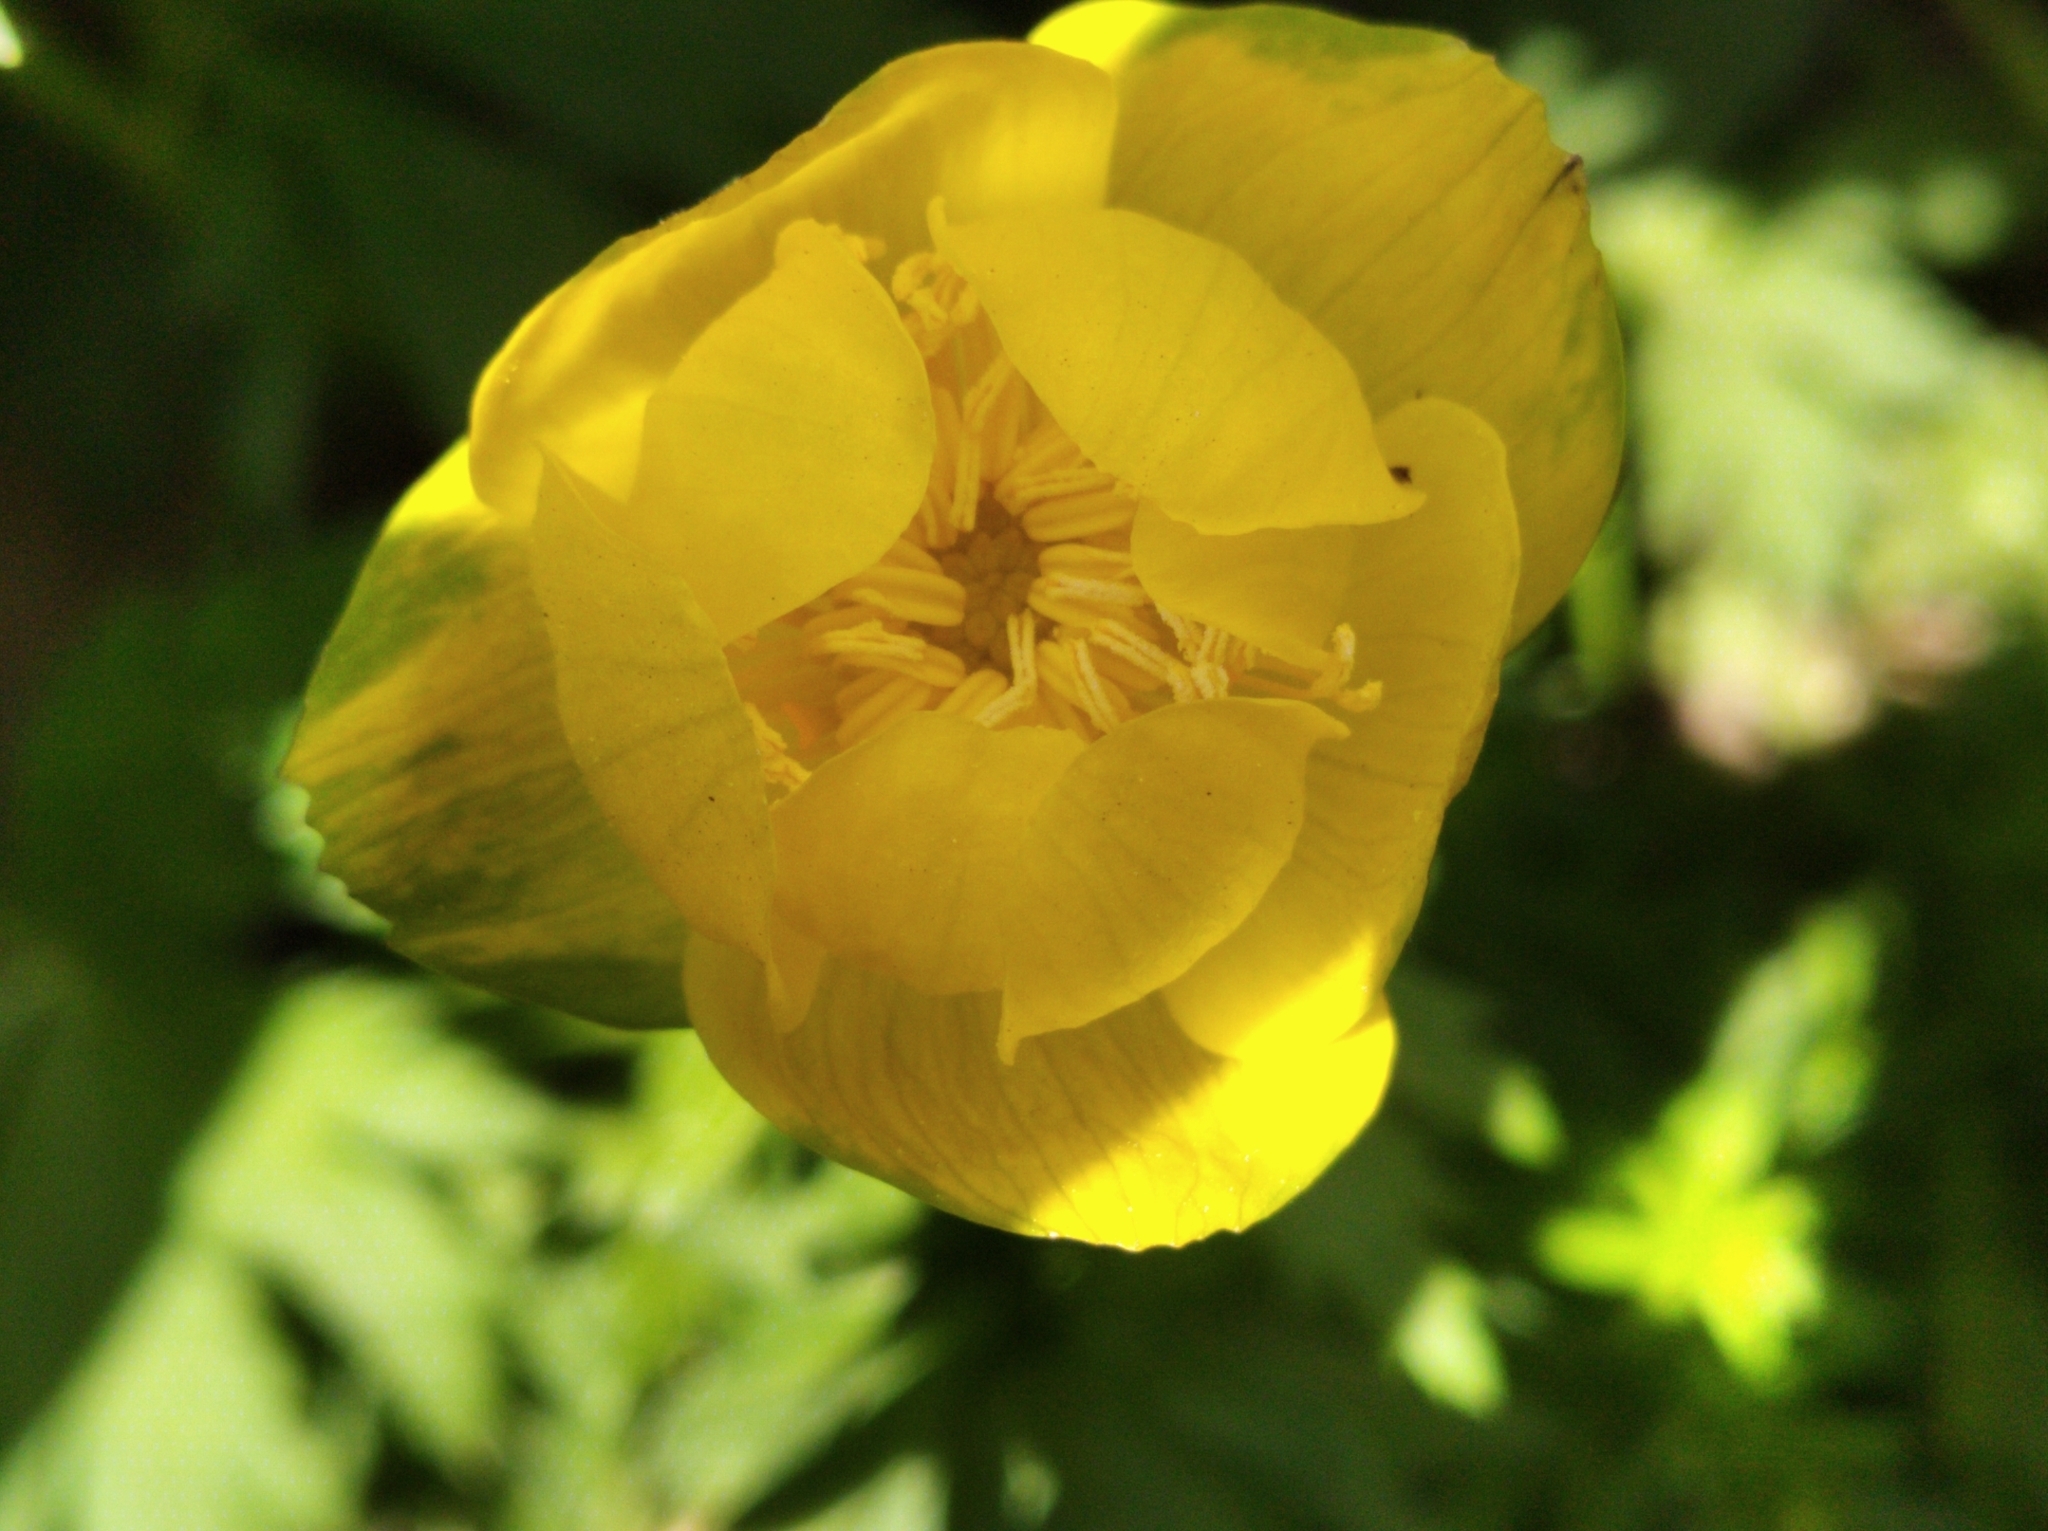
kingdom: Plantae
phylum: Tracheophyta
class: Magnoliopsida
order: Ranunculales
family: Ranunculaceae
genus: Trollius
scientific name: Trollius europaeus
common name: European globeflower
